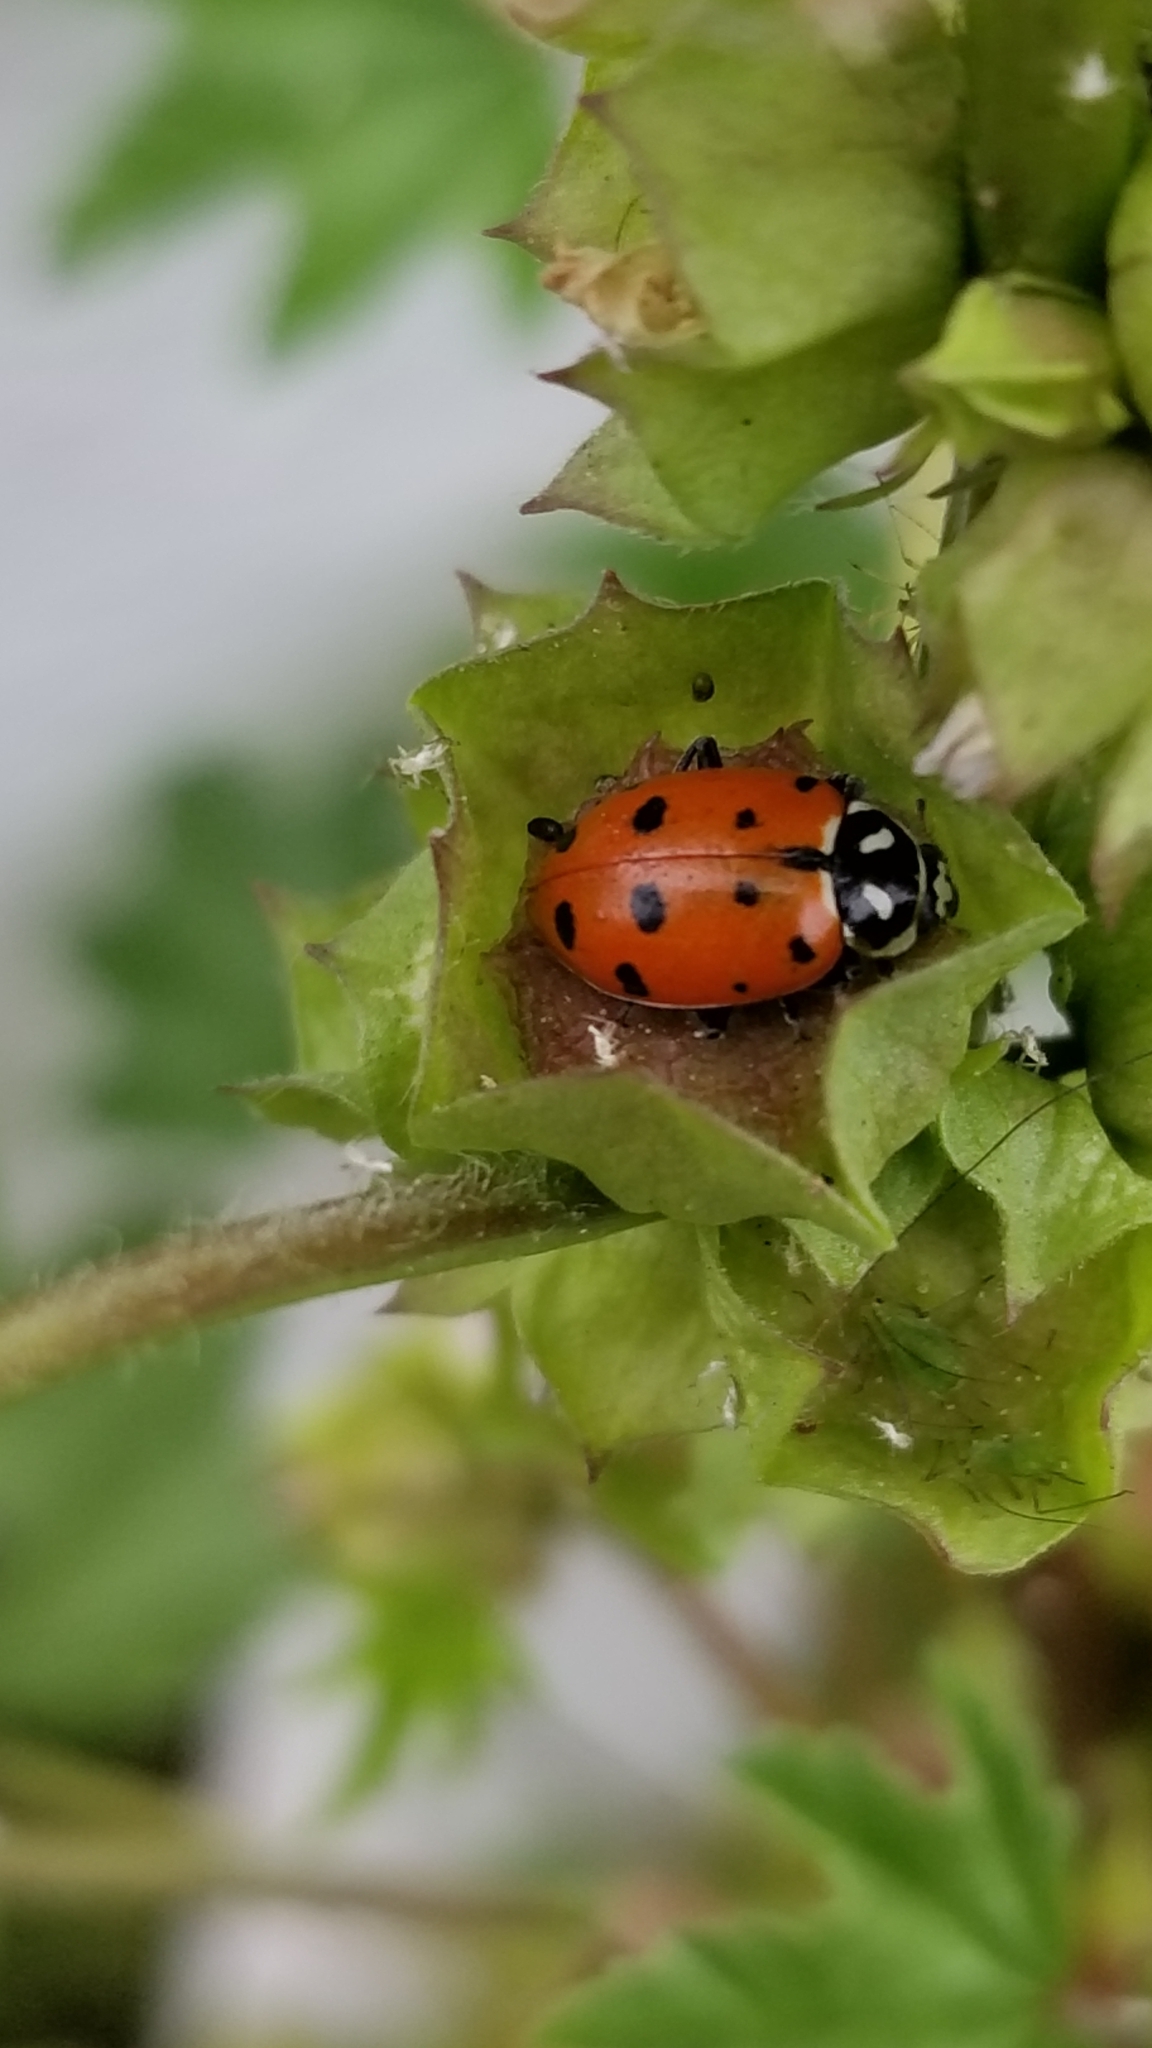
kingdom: Animalia
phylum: Arthropoda
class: Insecta
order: Coleoptera
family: Coccinellidae
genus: Hippodamia
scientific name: Hippodamia convergens
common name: Convergent lady beetle
